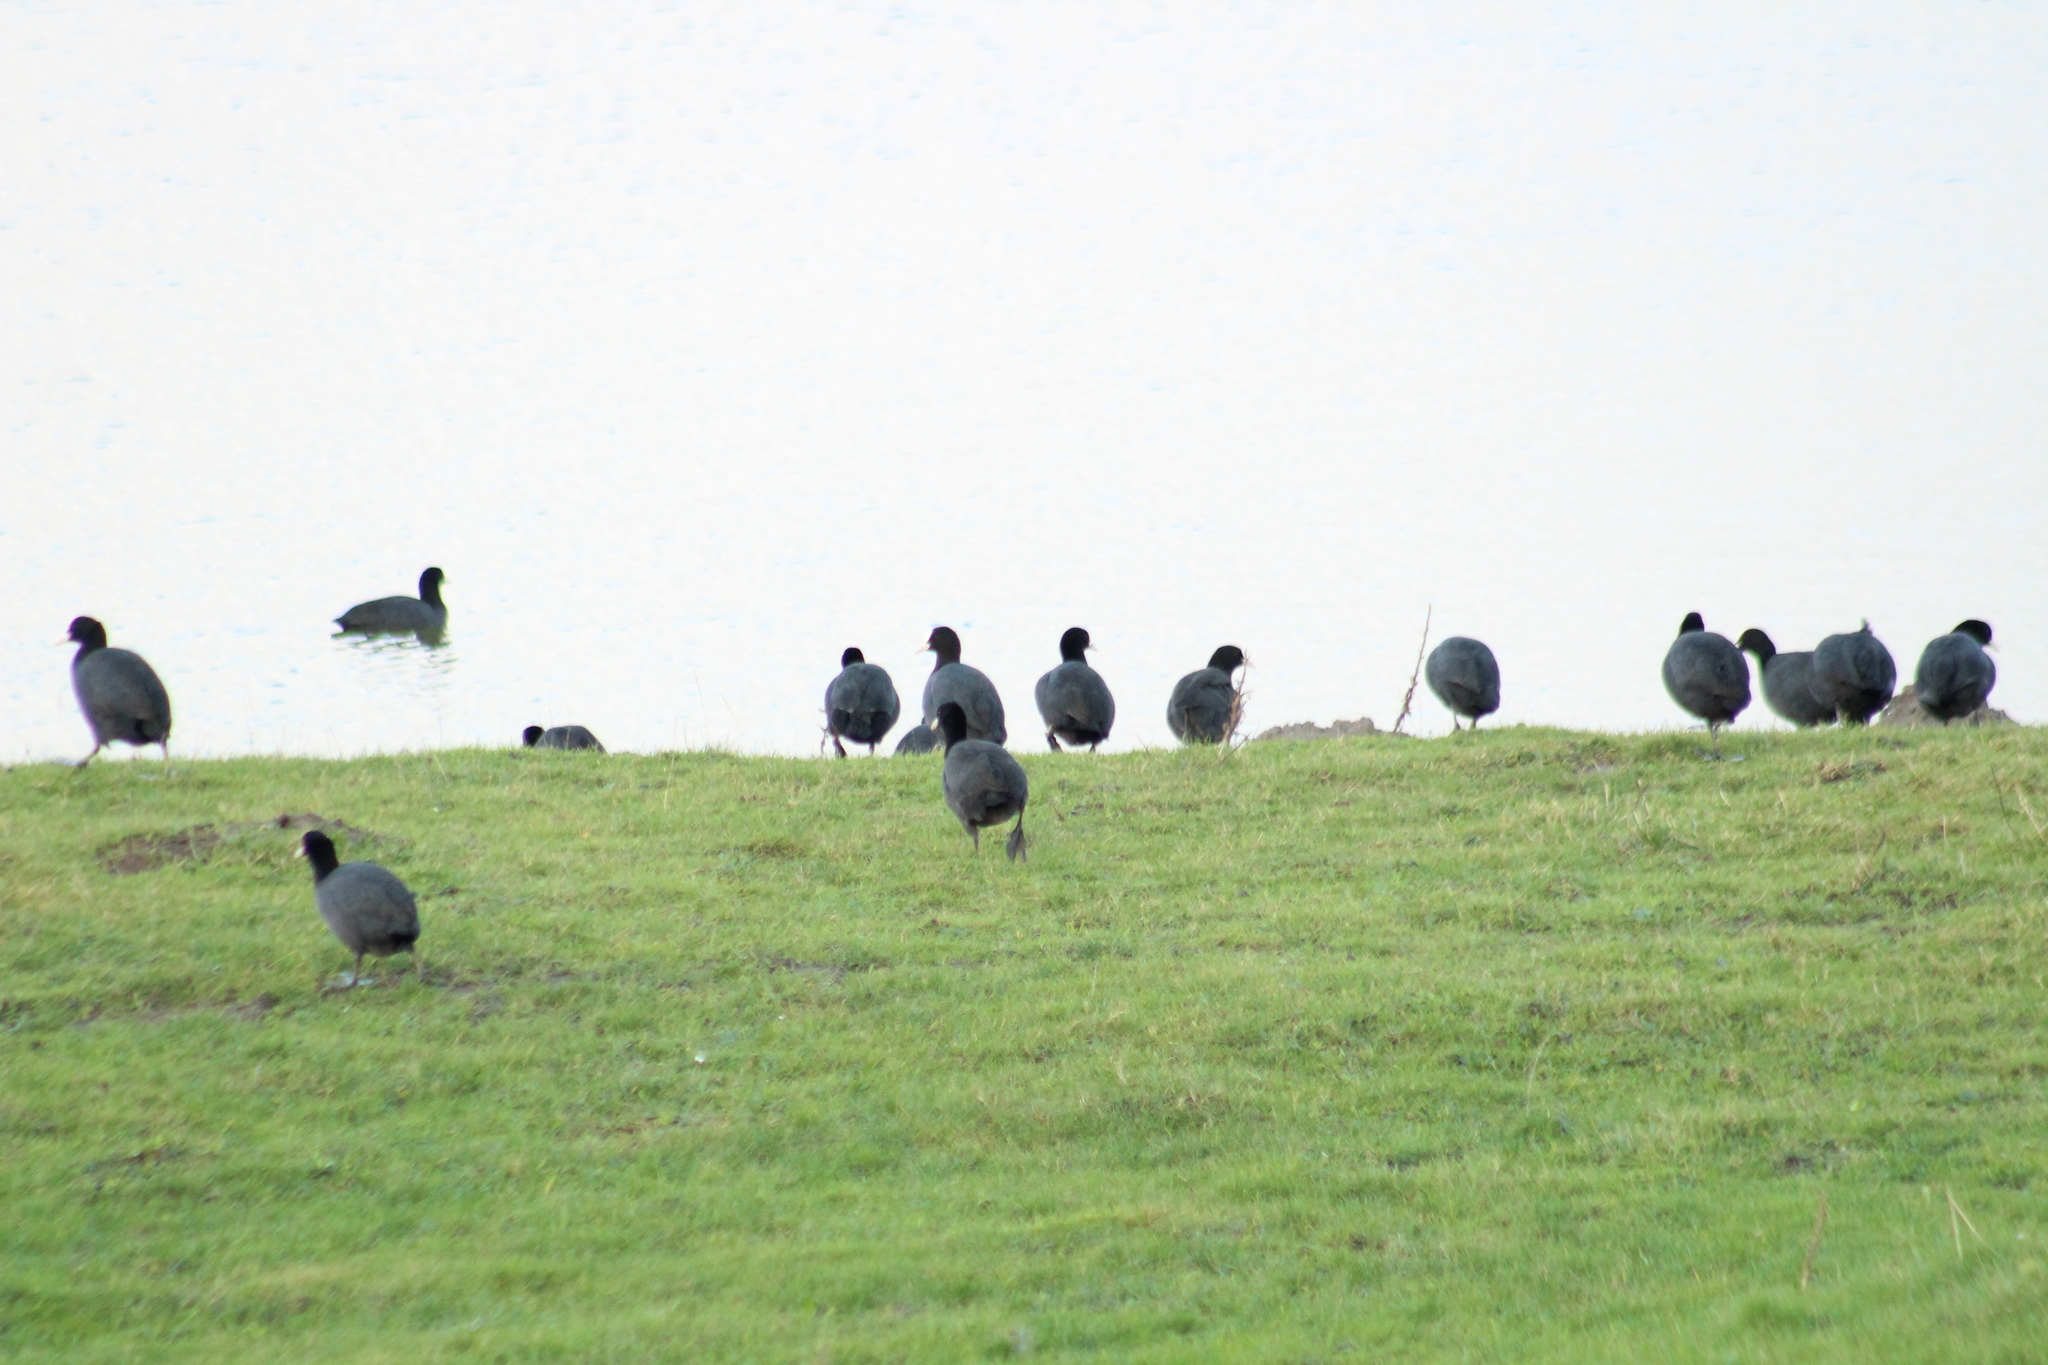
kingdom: Animalia
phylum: Chordata
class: Aves
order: Gruiformes
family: Rallidae
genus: Fulica
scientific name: Fulica atra
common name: Eurasian coot
